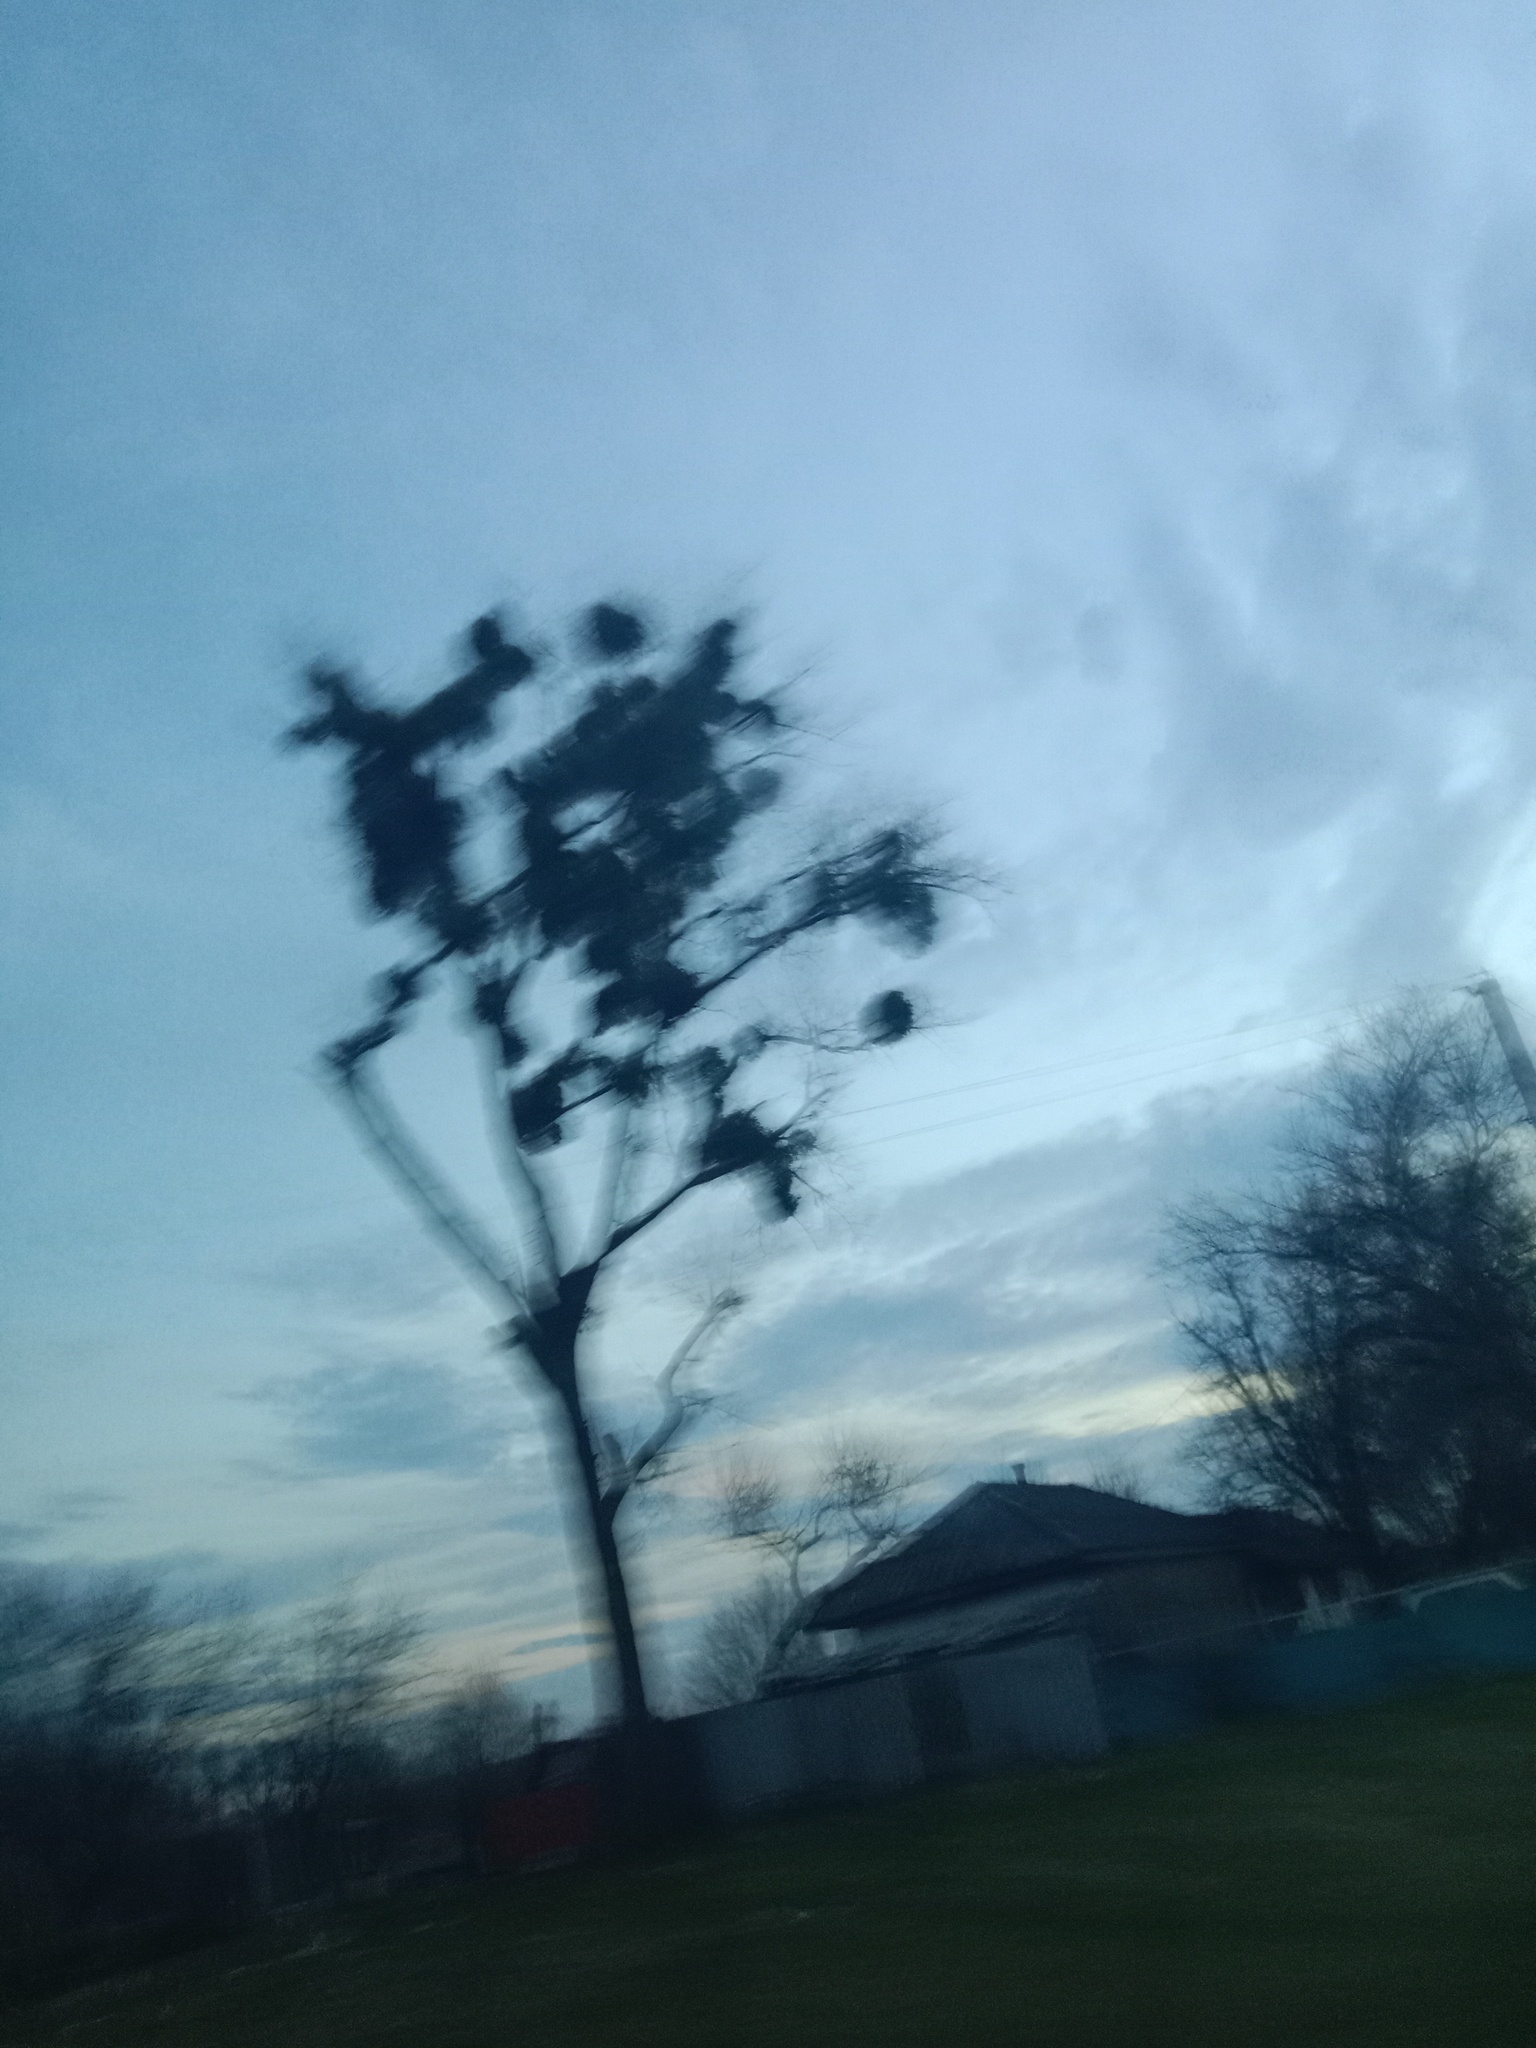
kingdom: Plantae
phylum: Tracheophyta
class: Magnoliopsida
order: Santalales
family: Viscaceae
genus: Viscum
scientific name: Viscum album
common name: Mistletoe
